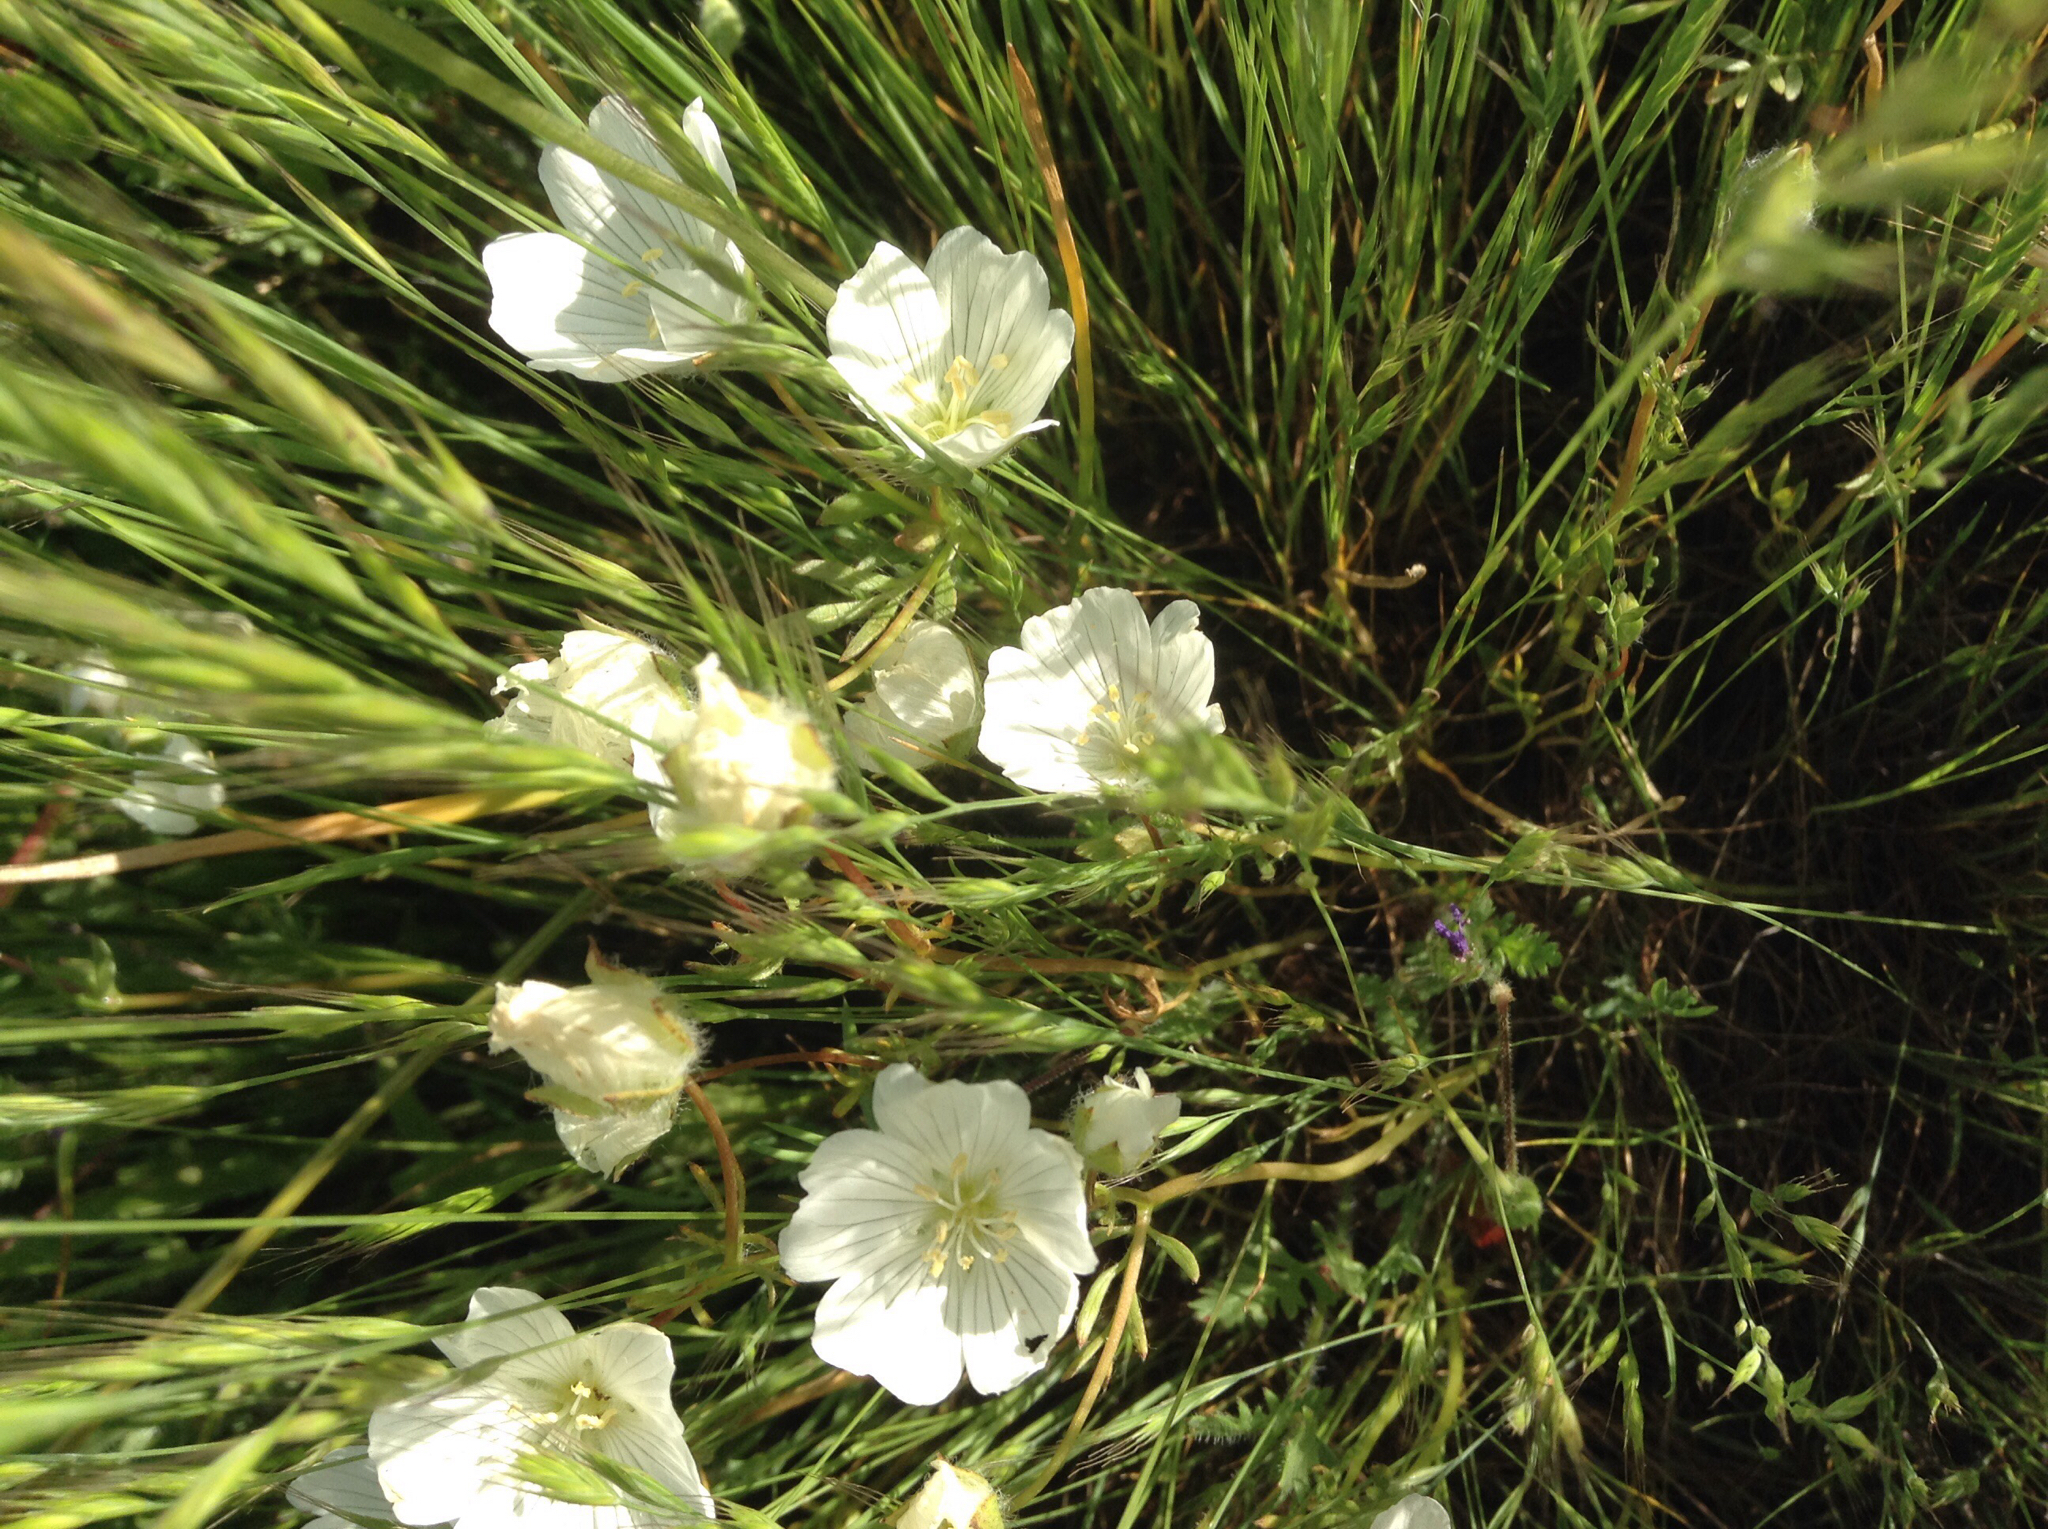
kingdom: Plantae
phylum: Tracheophyta
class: Magnoliopsida
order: Brassicales
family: Limnanthaceae
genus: Limnanthes
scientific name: Limnanthes alba
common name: Meadowfoam
